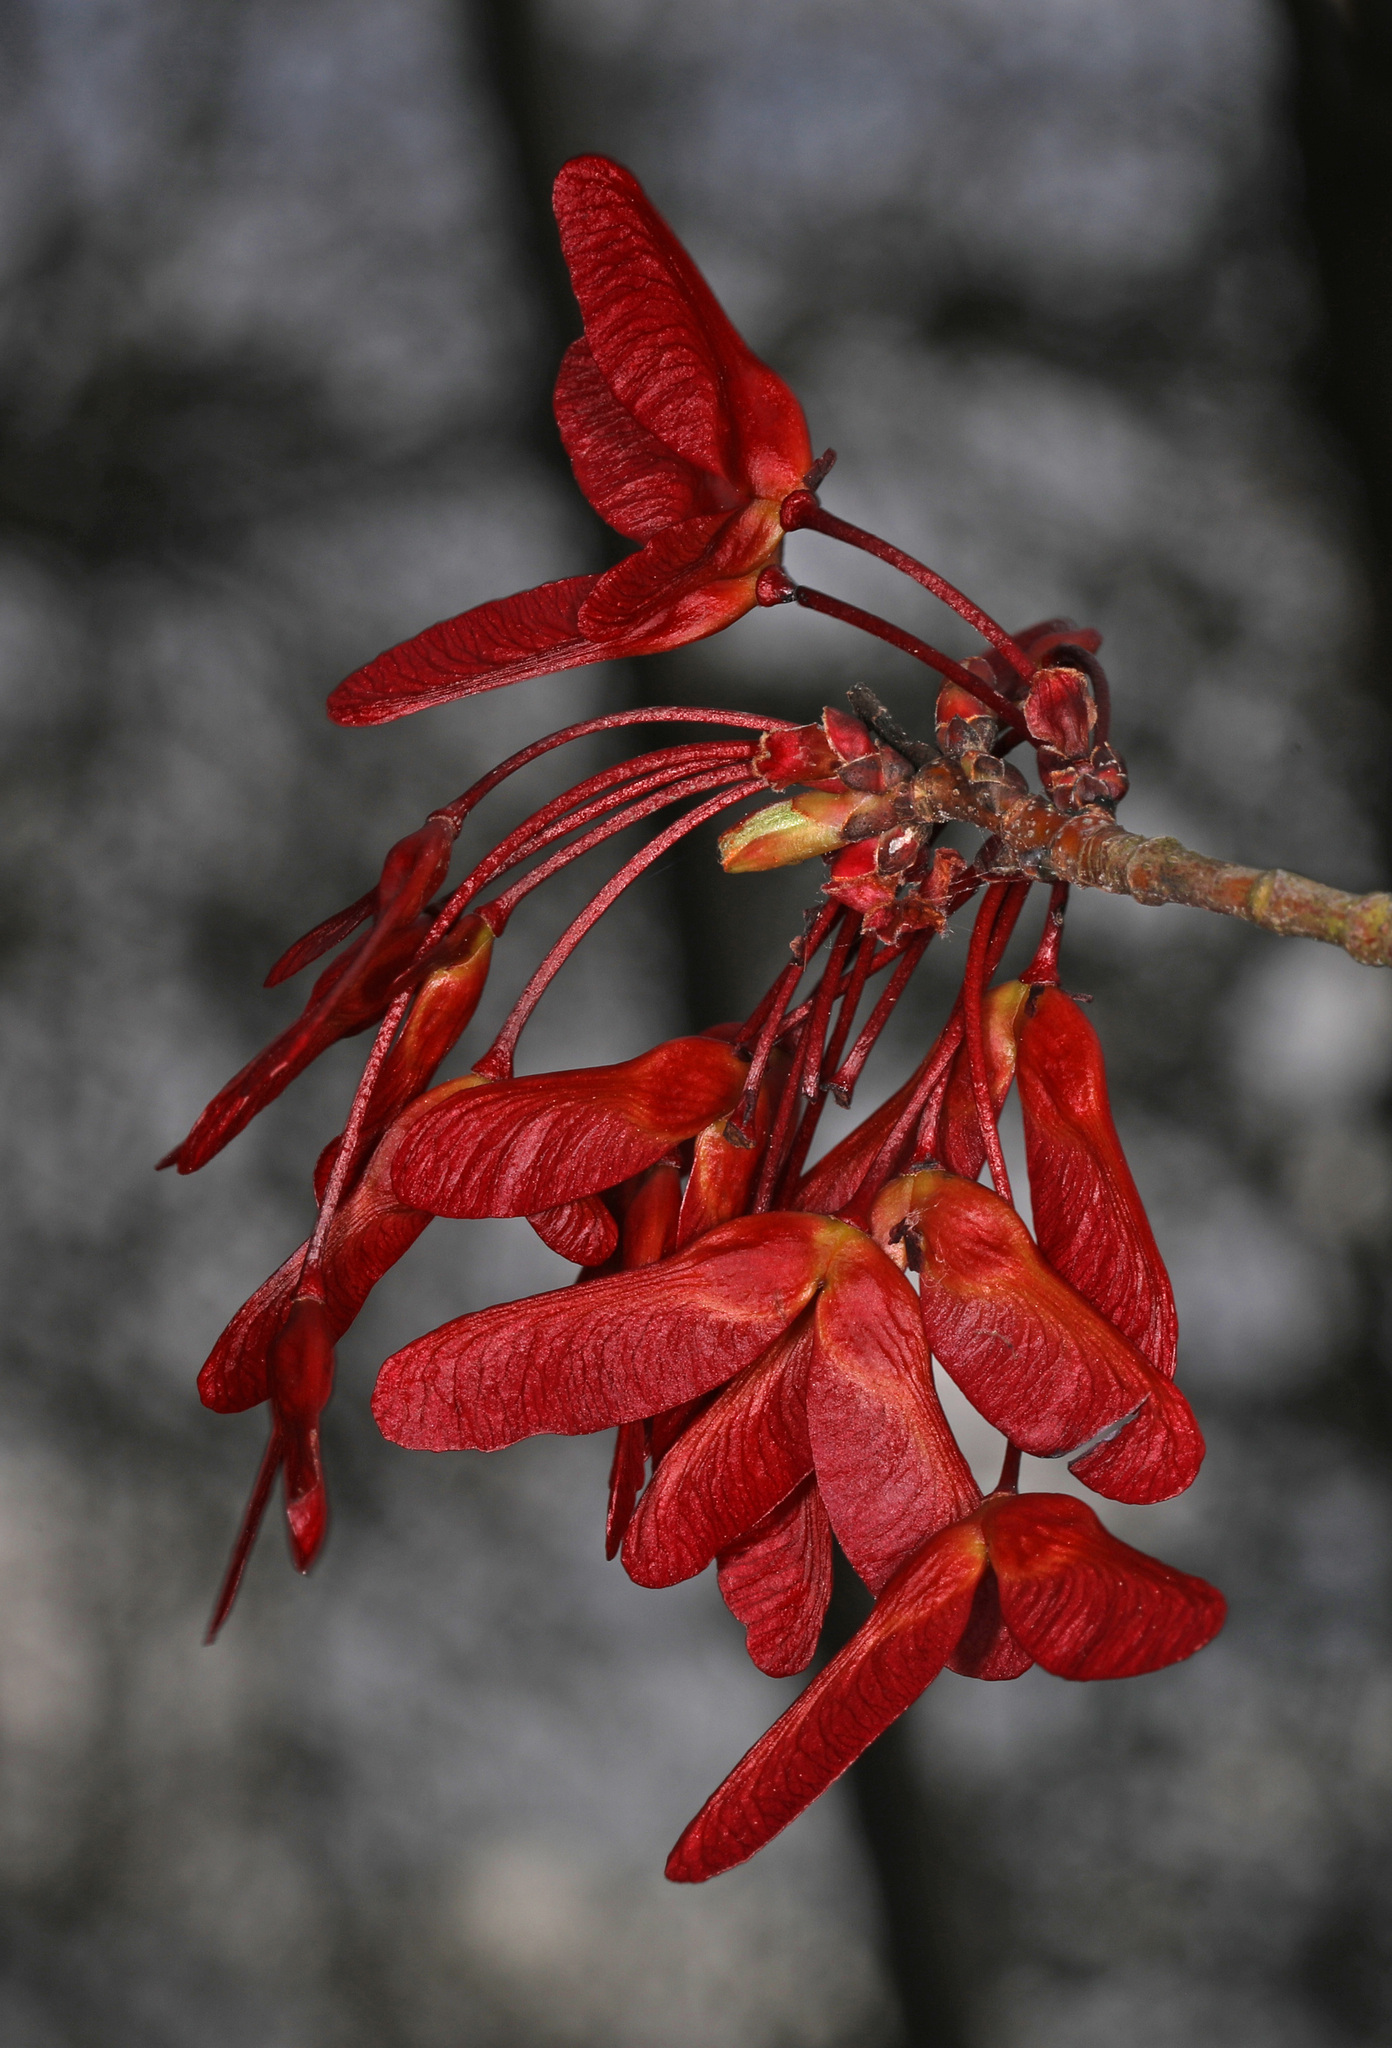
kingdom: Plantae
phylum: Tracheophyta
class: Magnoliopsida
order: Sapindales
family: Sapindaceae
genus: Acer
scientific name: Acer rubrum
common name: Red maple
